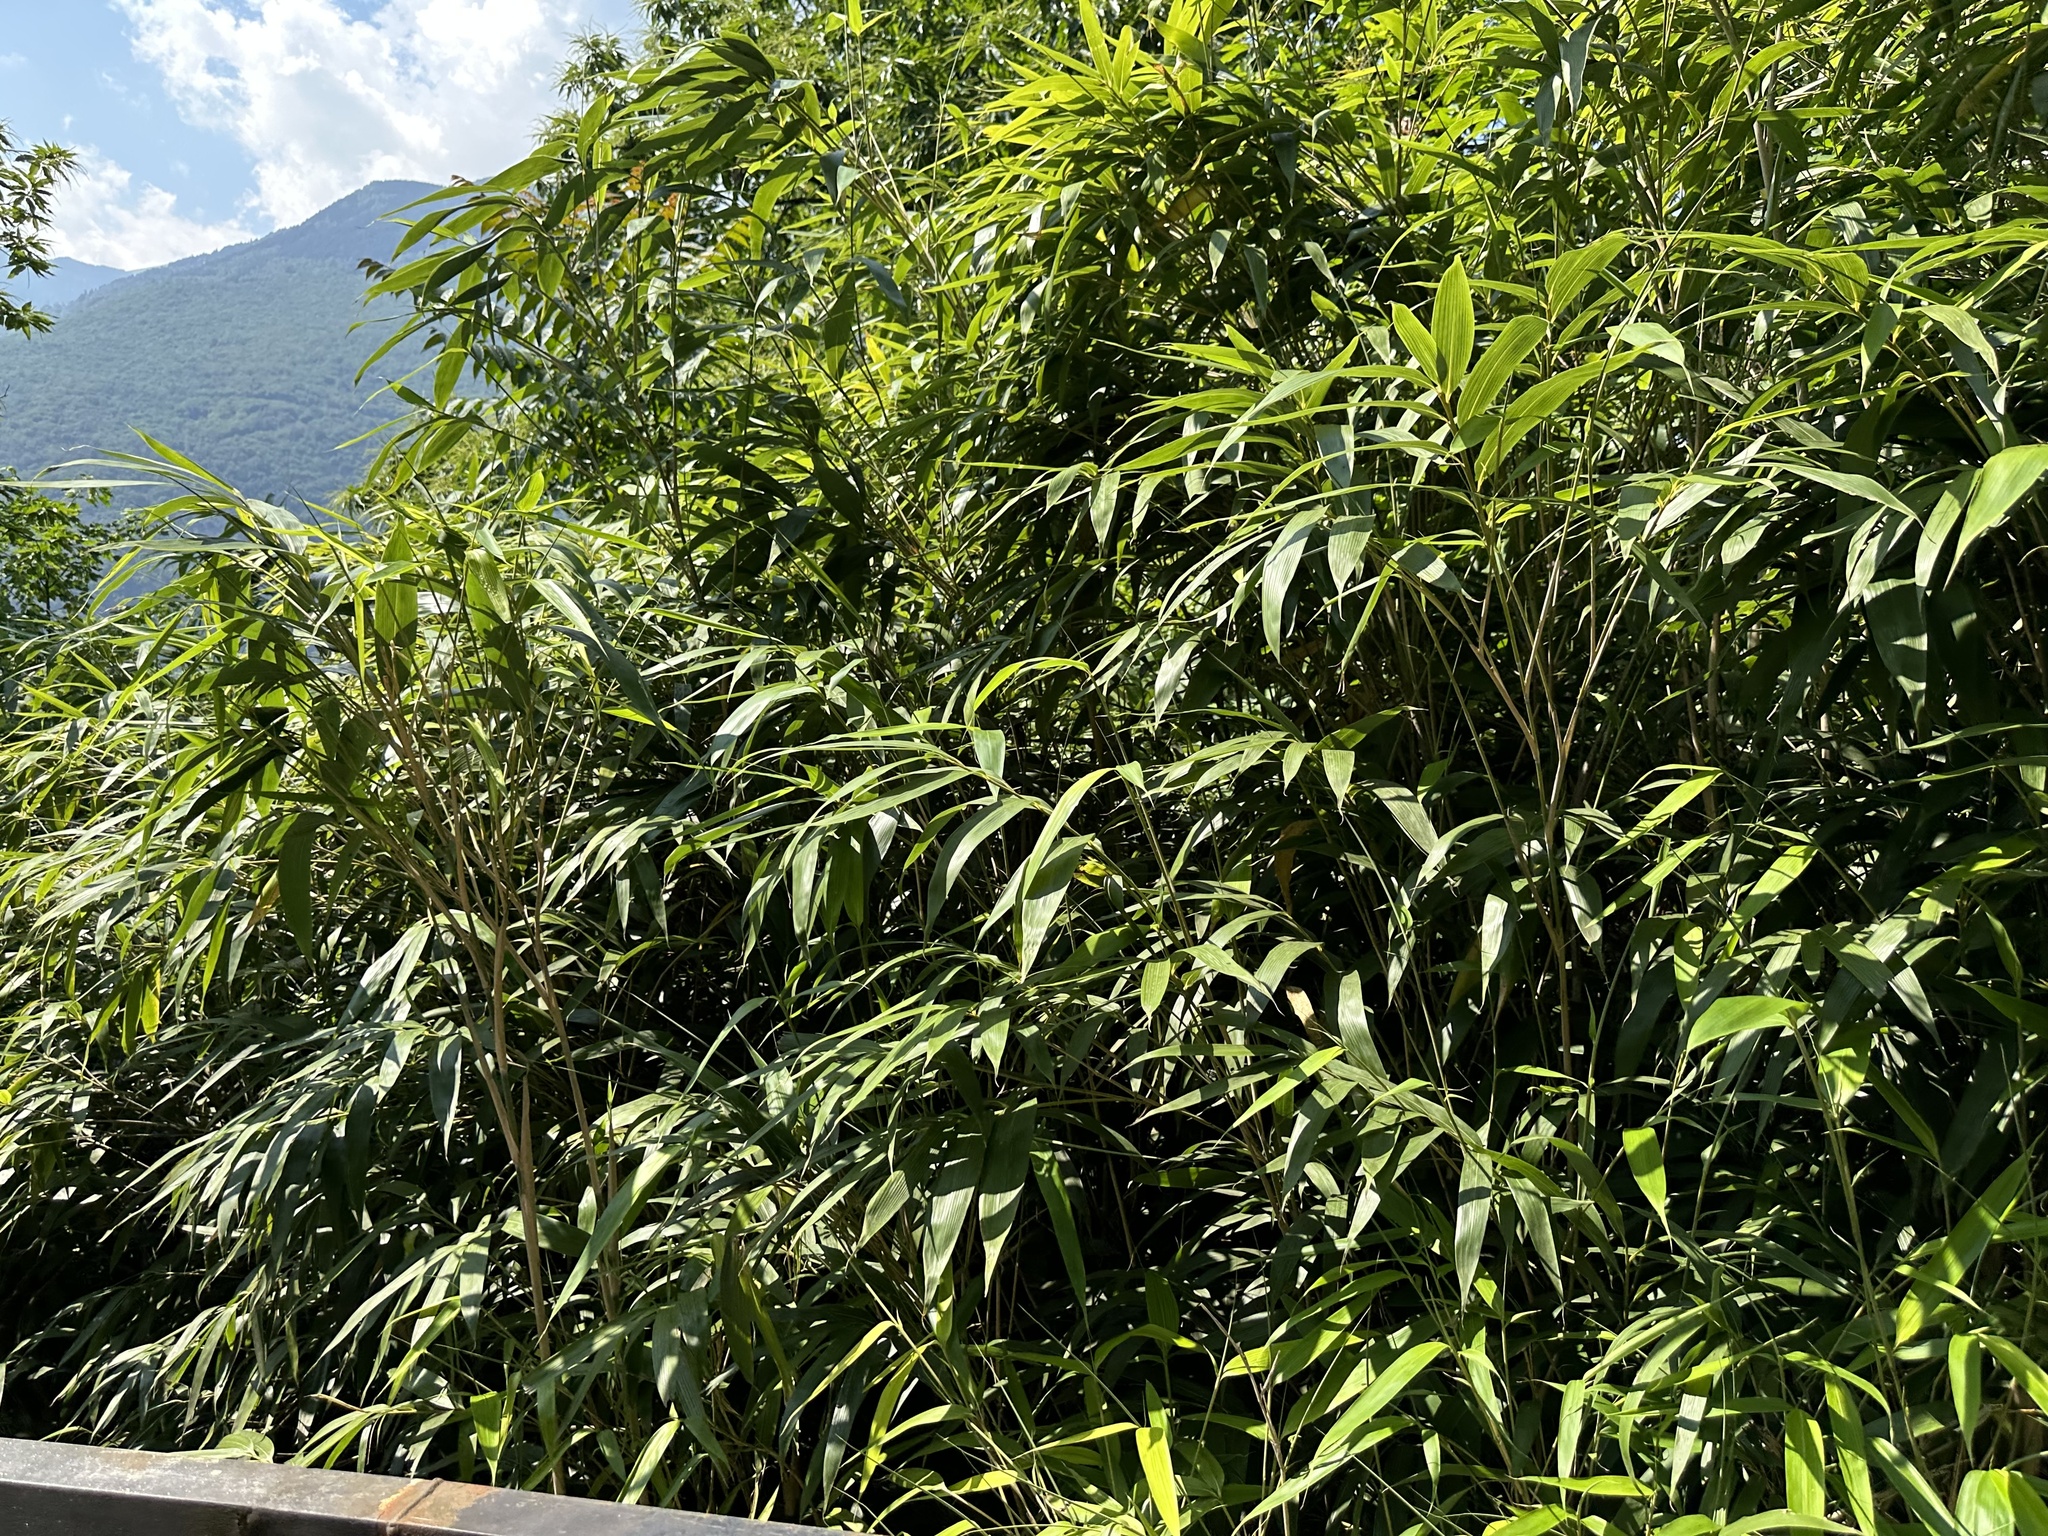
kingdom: Plantae
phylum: Tracheophyta
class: Liliopsida
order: Poales
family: Poaceae
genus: Pseudosasa
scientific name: Pseudosasa japonica
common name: Arrow bamboo
